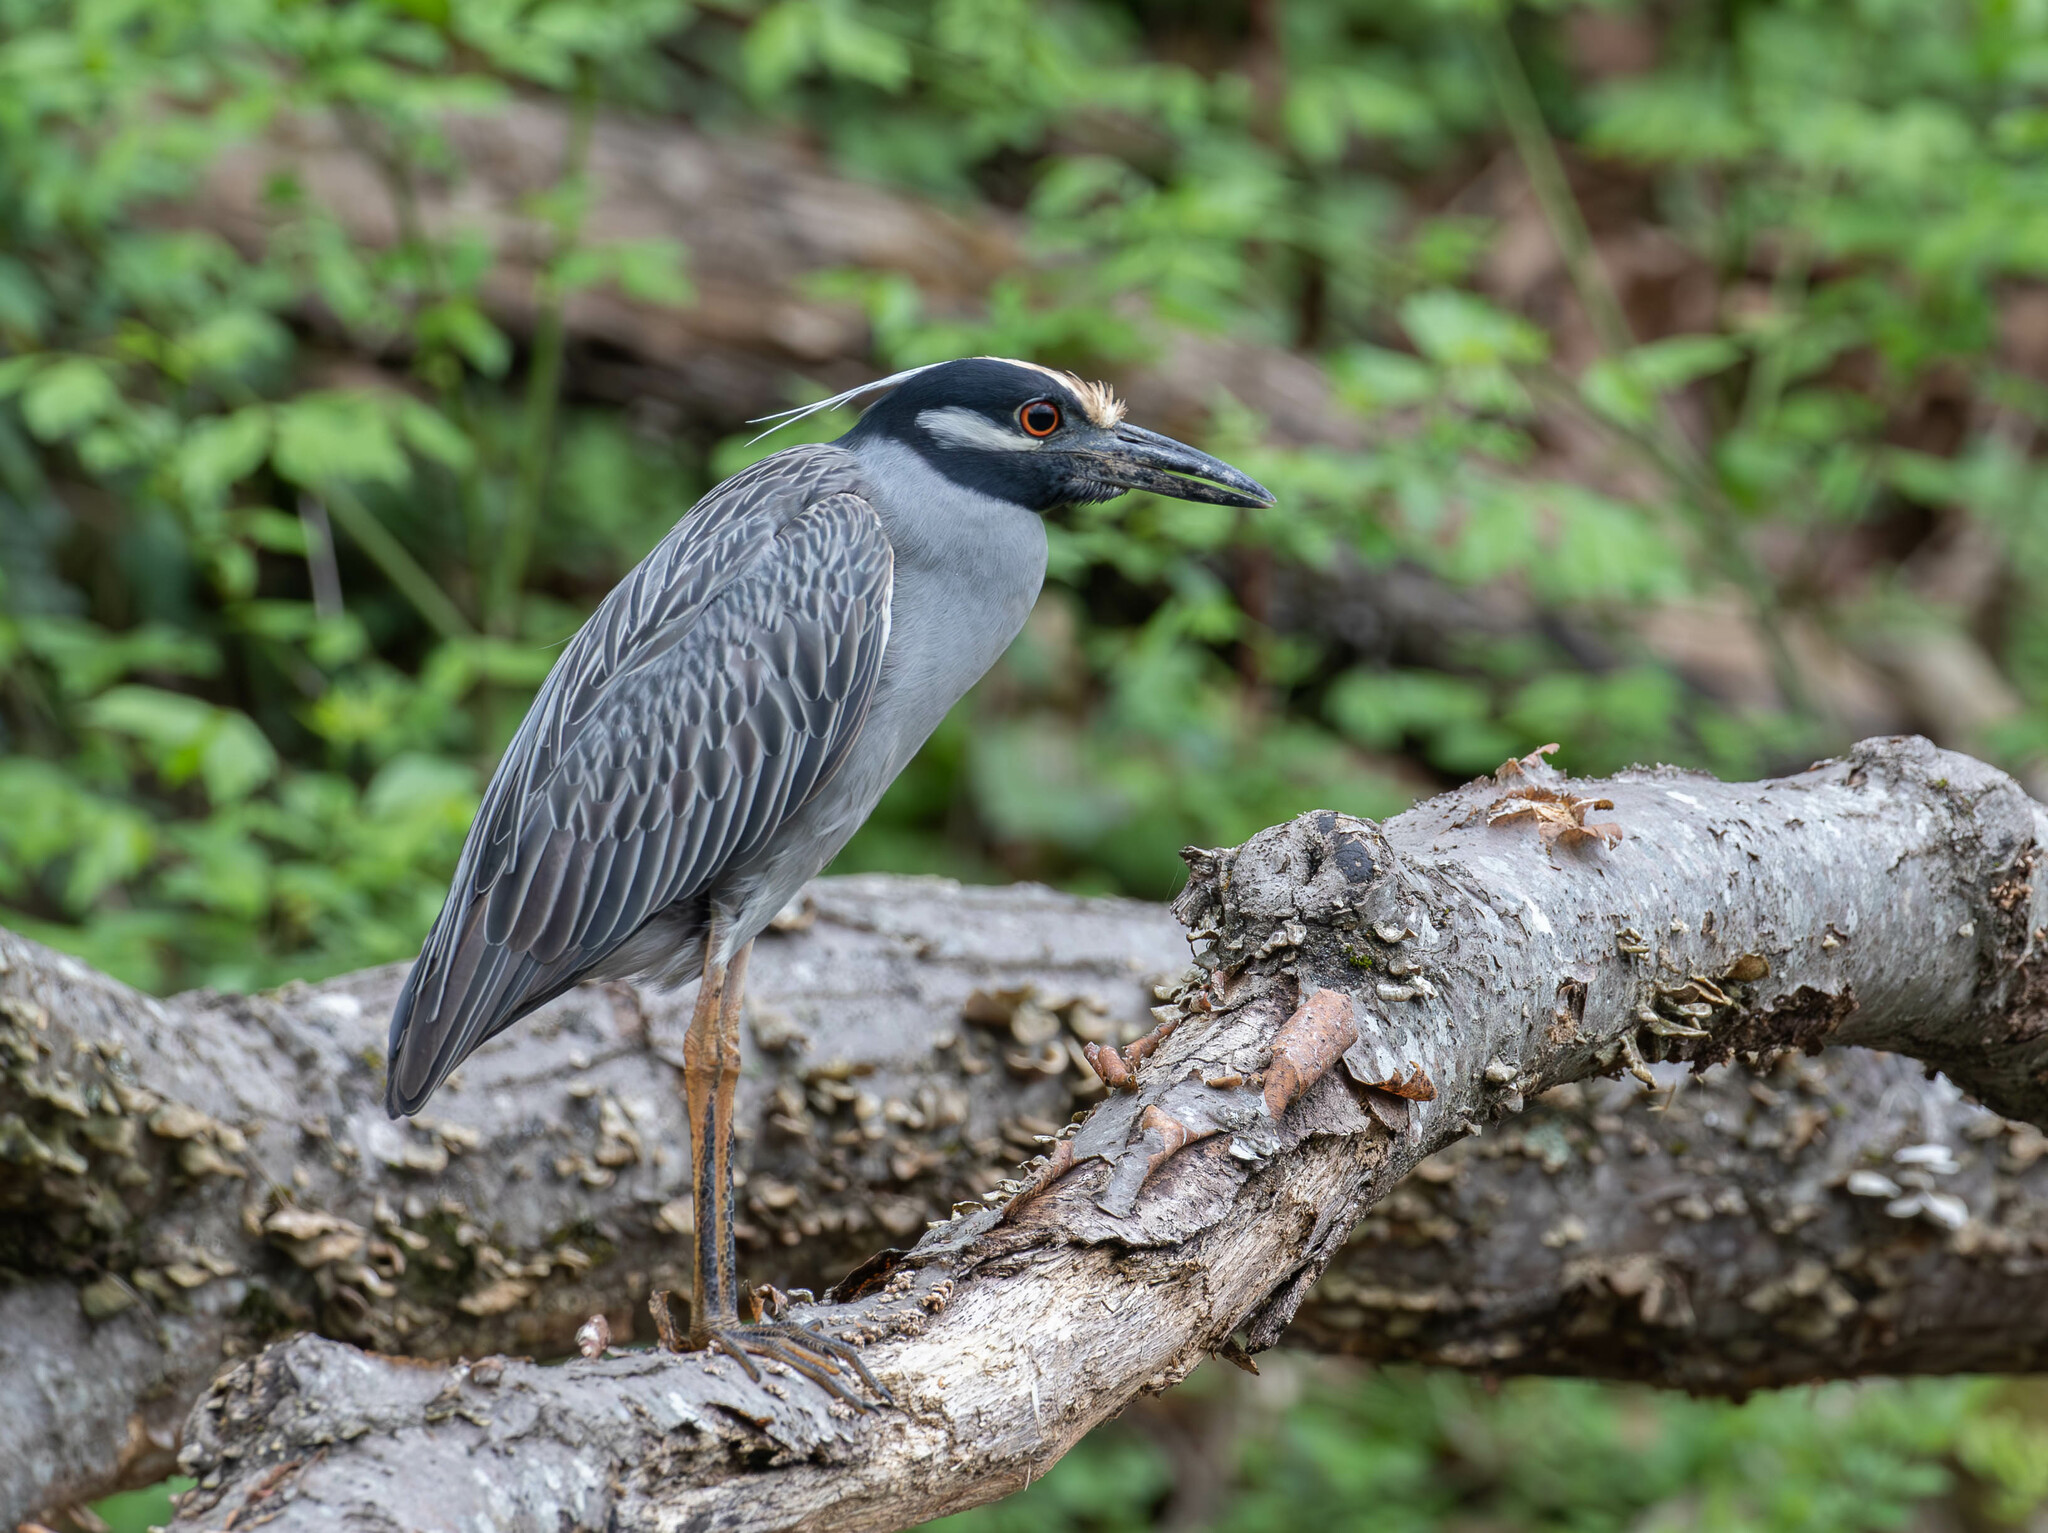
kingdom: Animalia
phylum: Chordata
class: Aves
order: Pelecaniformes
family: Ardeidae
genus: Nyctanassa
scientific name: Nyctanassa violacea
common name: Yellow-crowned night heron
